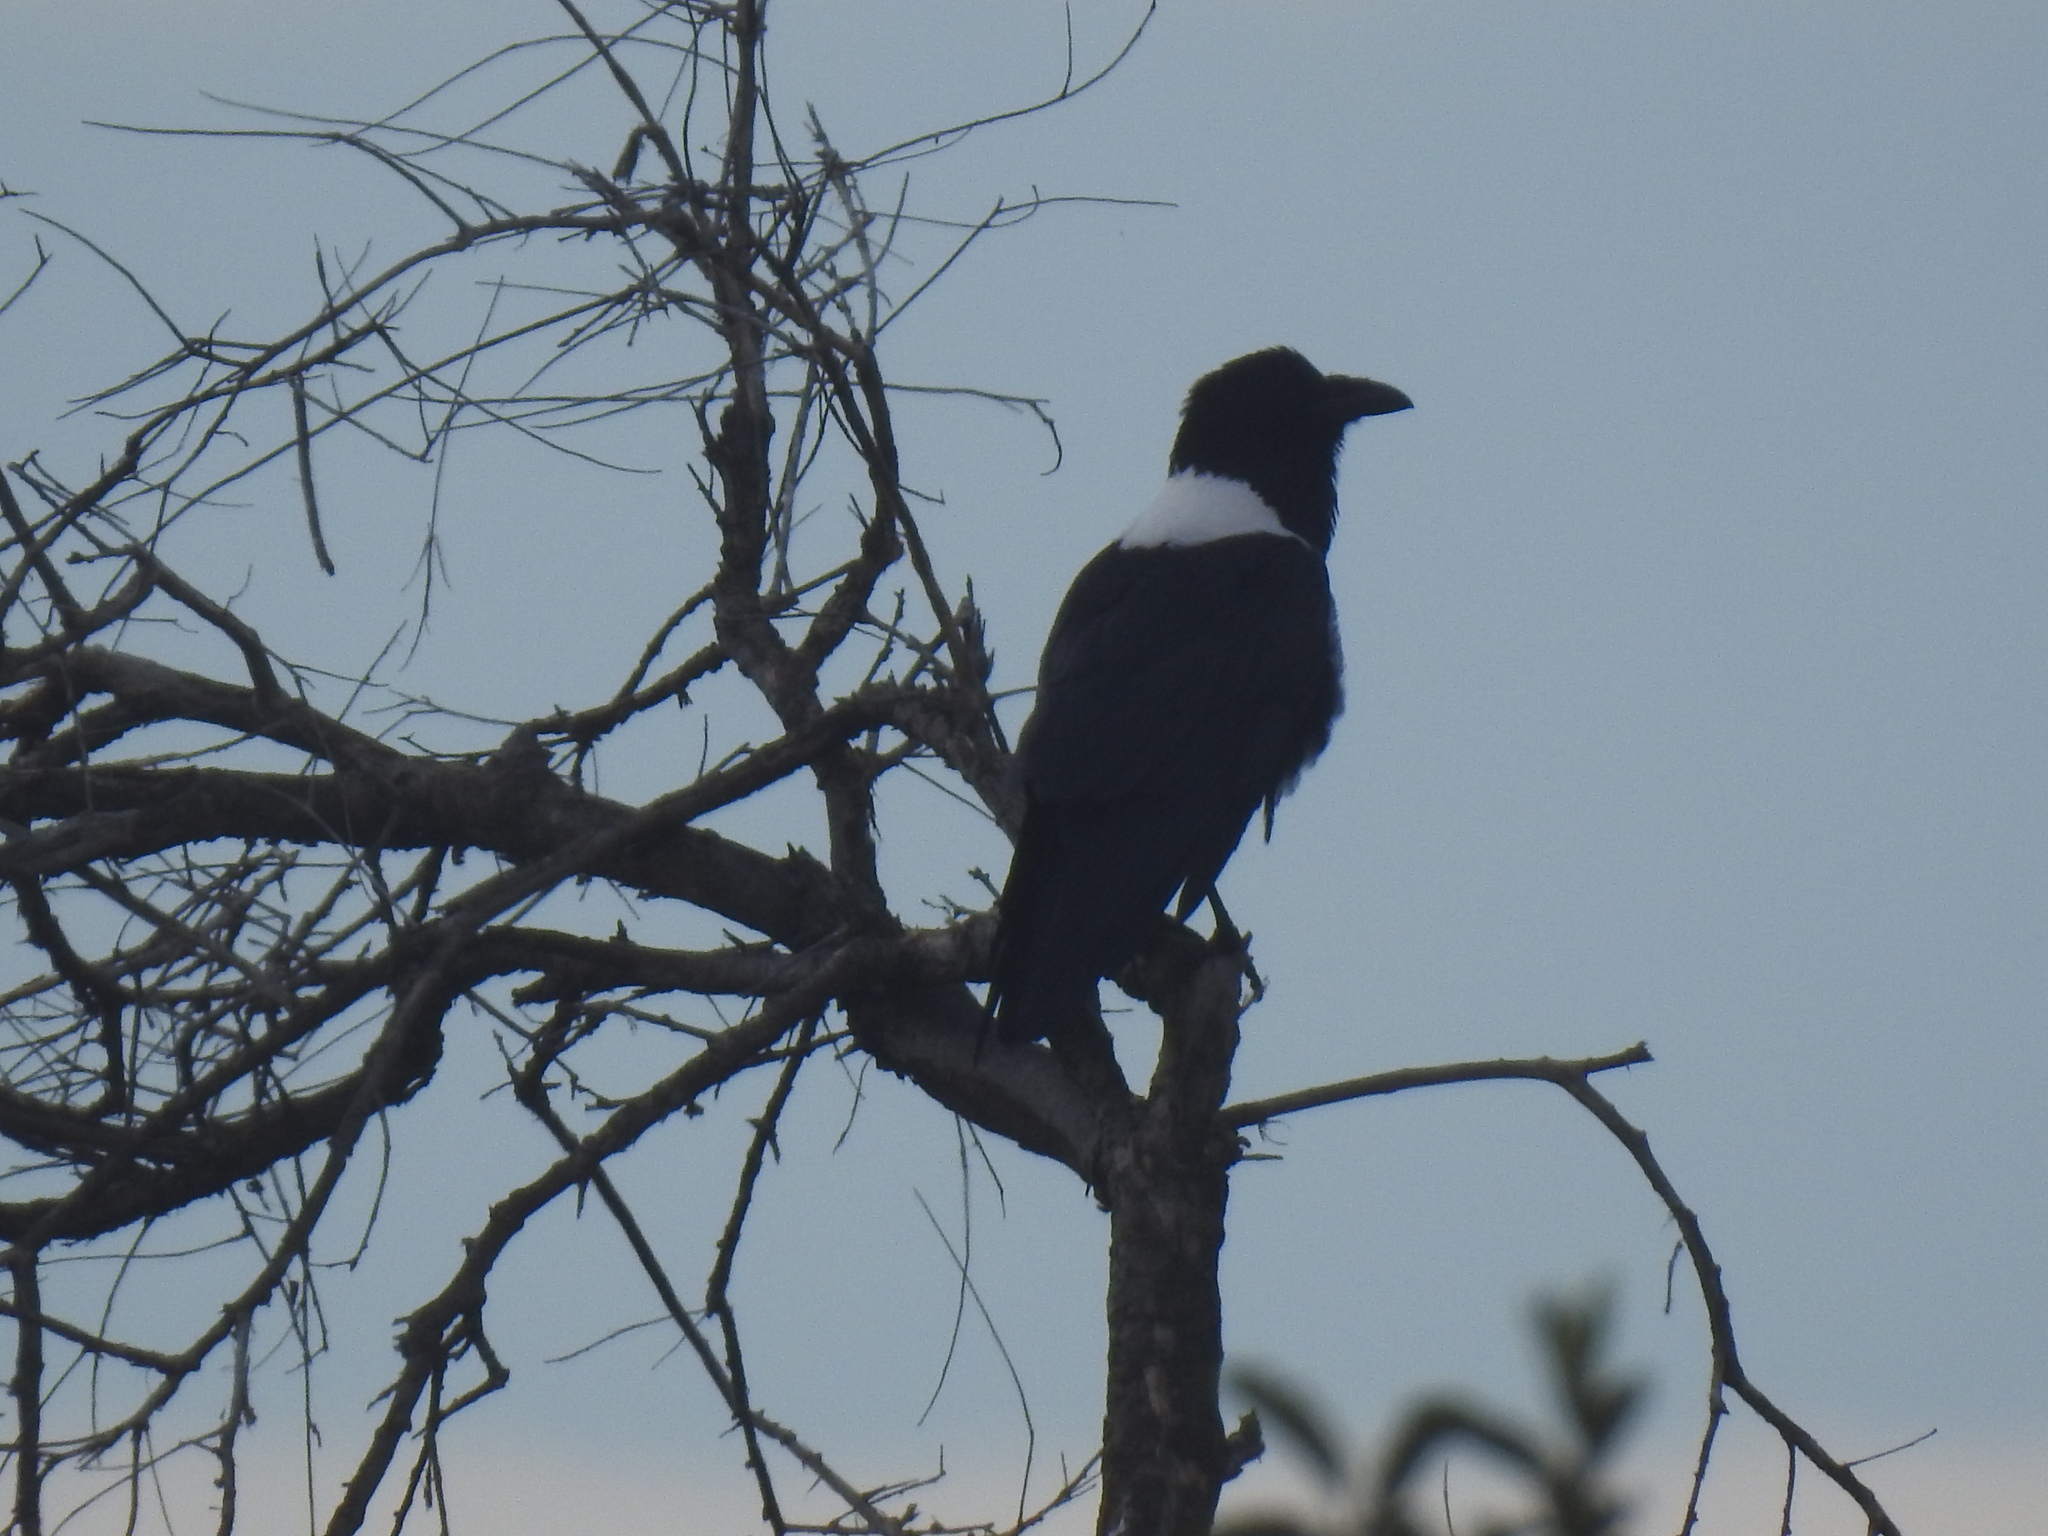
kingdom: Animalia
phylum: Chordata
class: Aves
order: Passeriformes
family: Corvidae
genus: Corvus
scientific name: Corvus albus
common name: Pied crow
